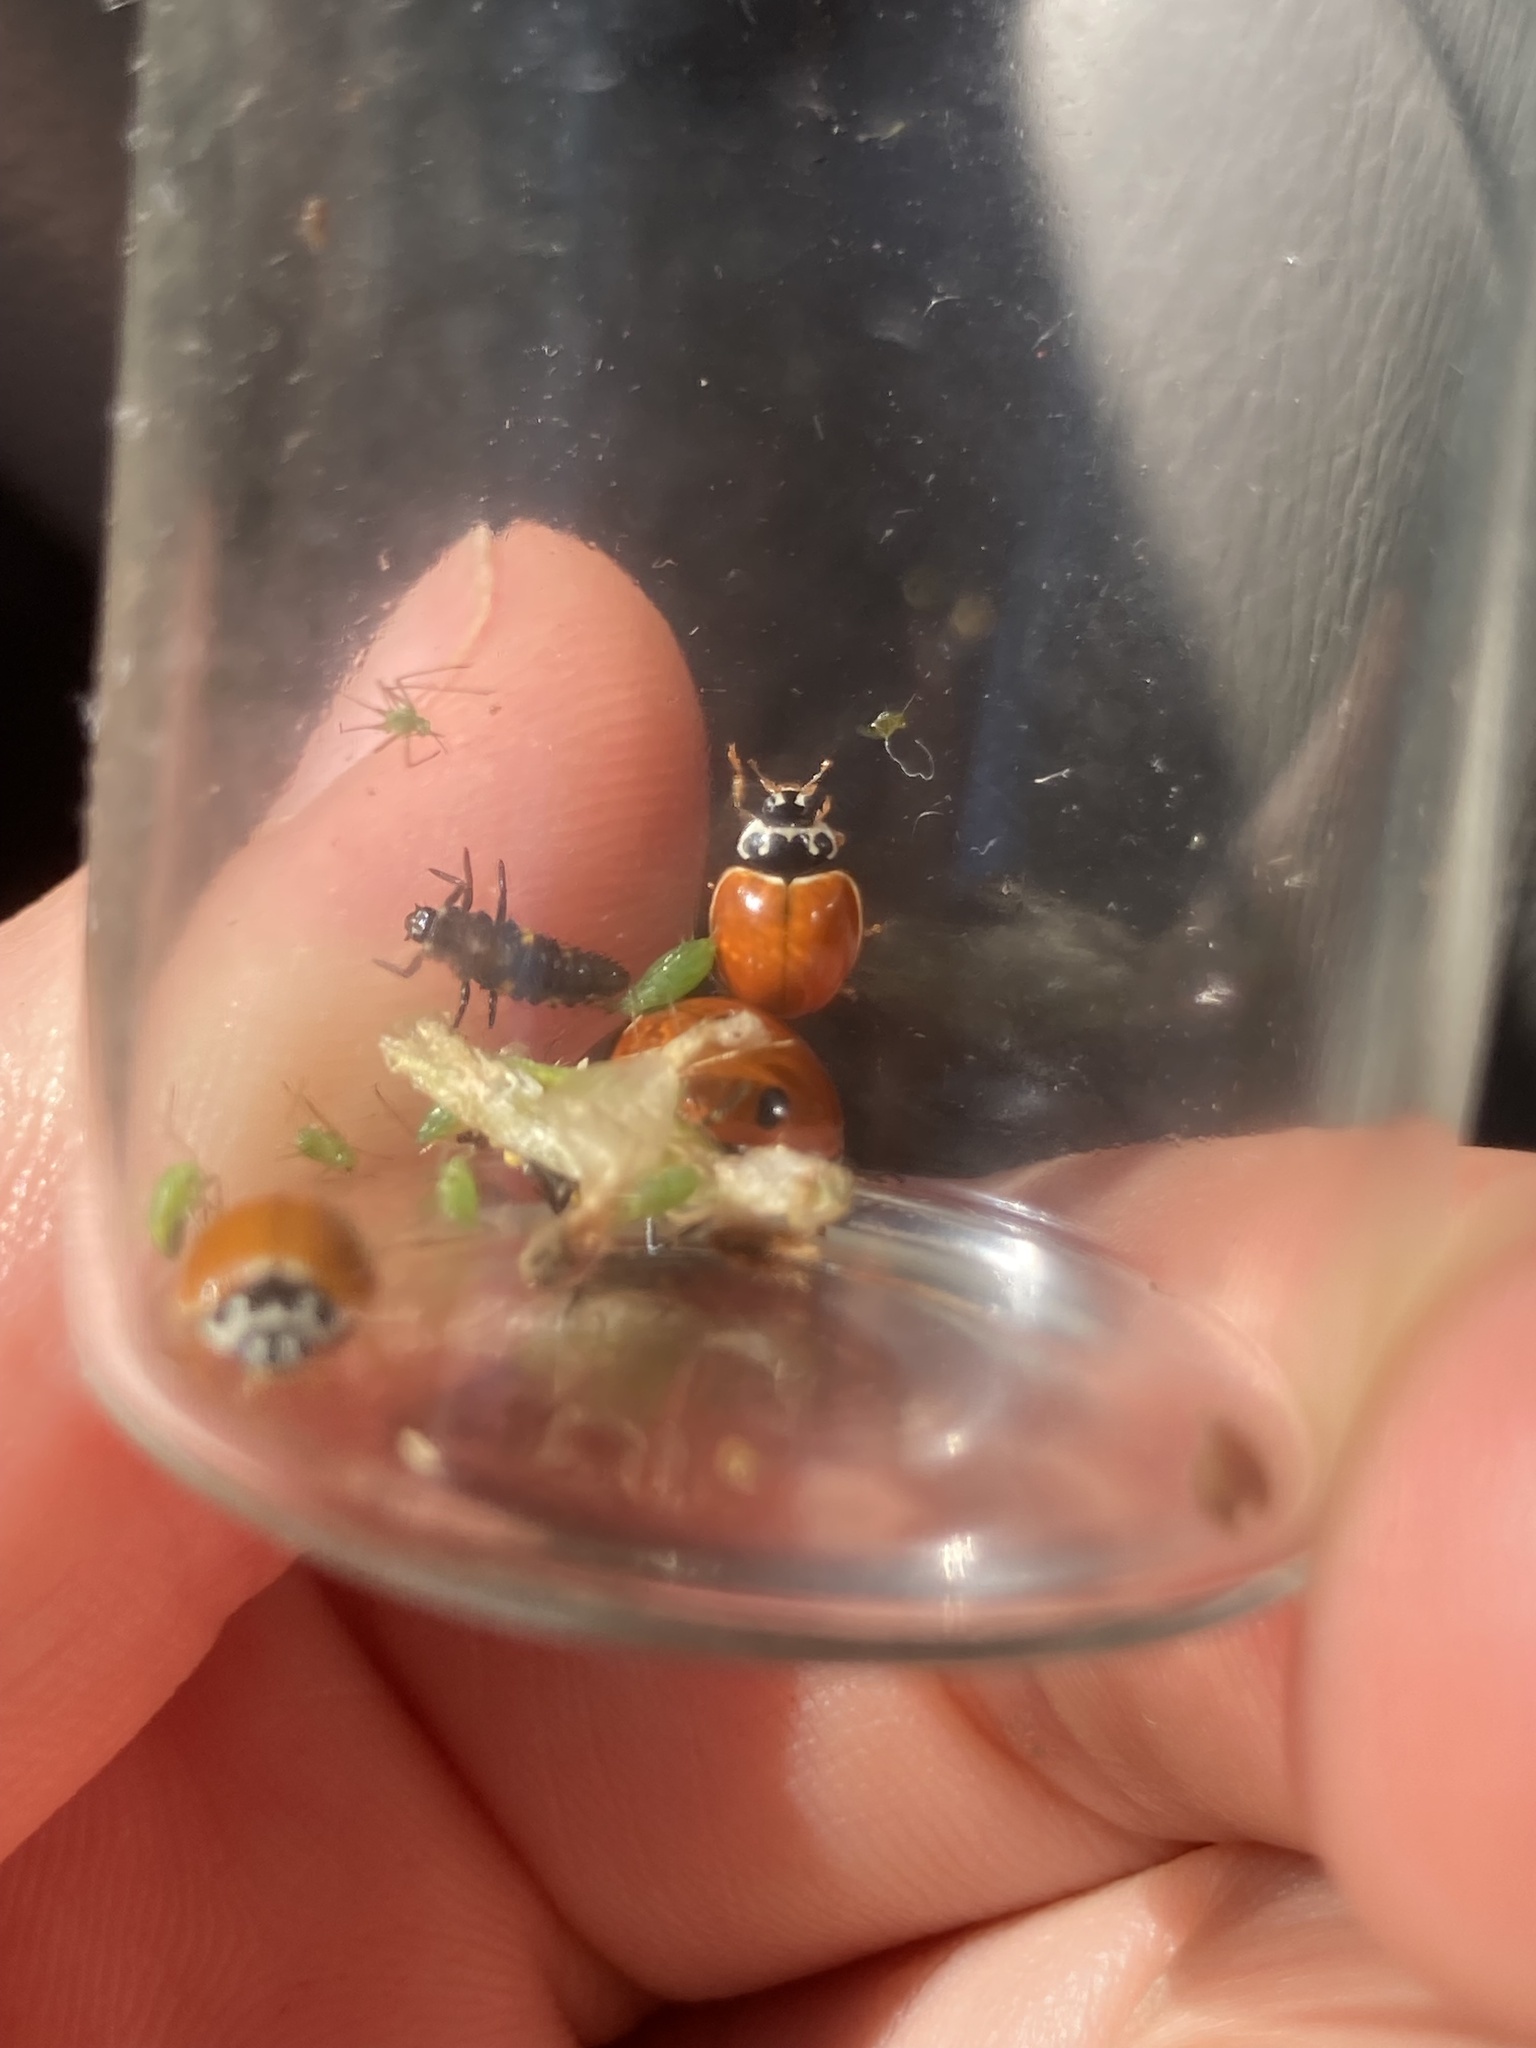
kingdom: Animalia
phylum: Arthropoda
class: Insecta
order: Coleoptera
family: Coccinellidae
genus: Cycloneda
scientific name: Cycloneda munda
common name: Polished lady beetle
